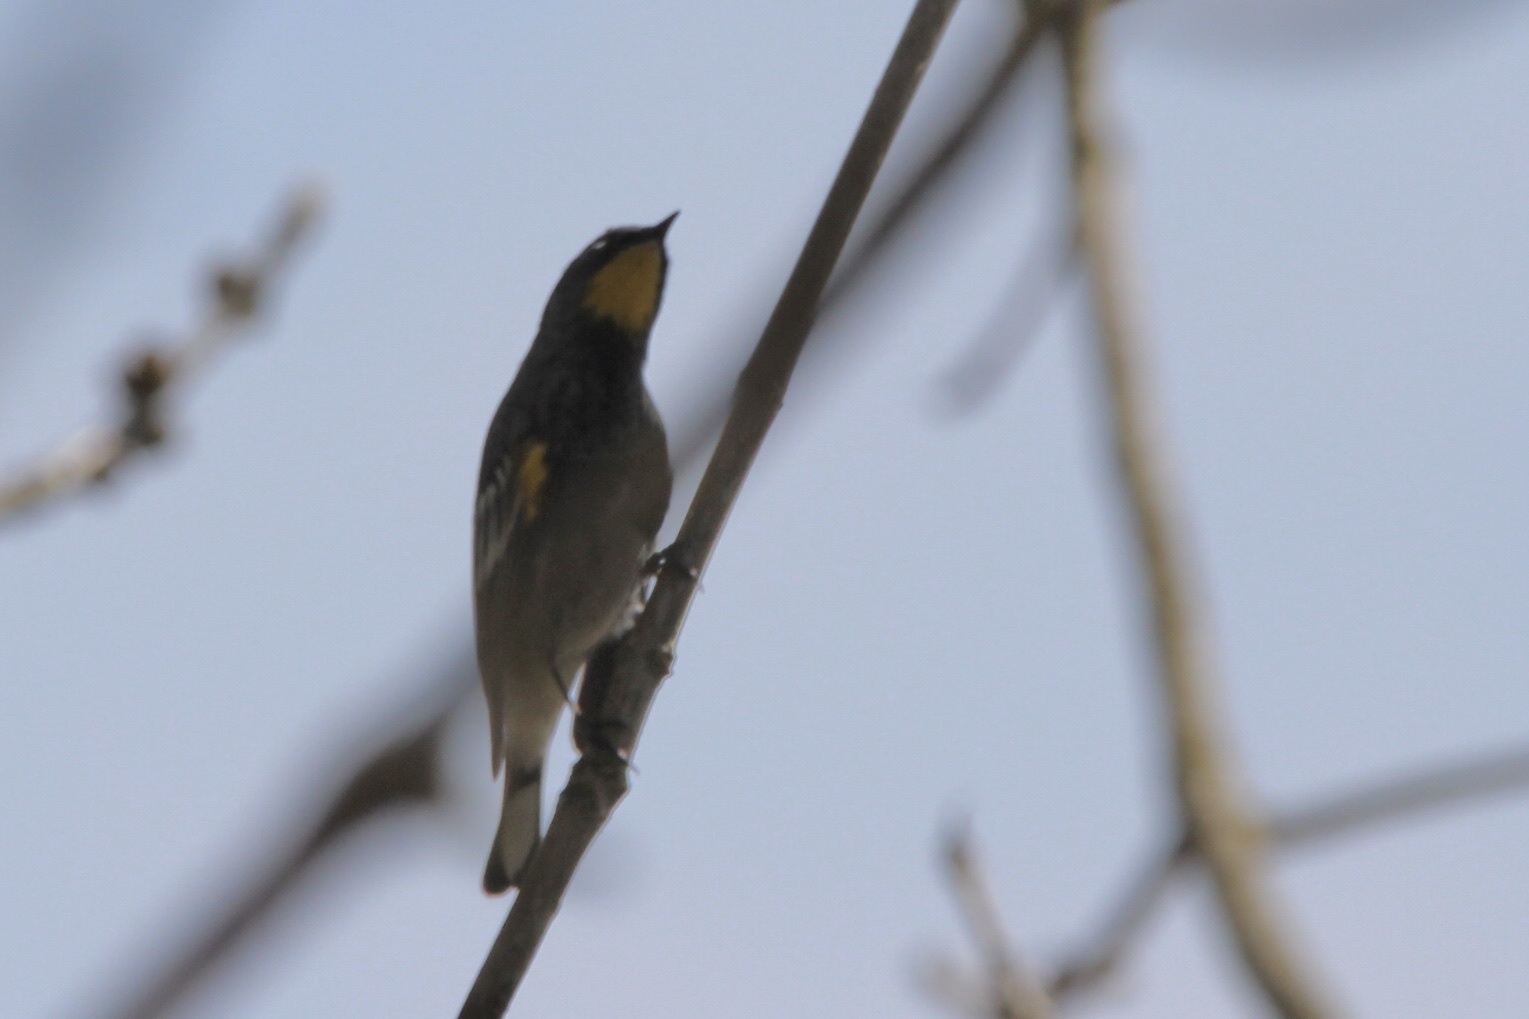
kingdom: Animalia
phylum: Chordata
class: Aves
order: Passeriformes
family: Parulidae
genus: Setophaga
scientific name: Setophaga auduboni
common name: Audubon's warbler
